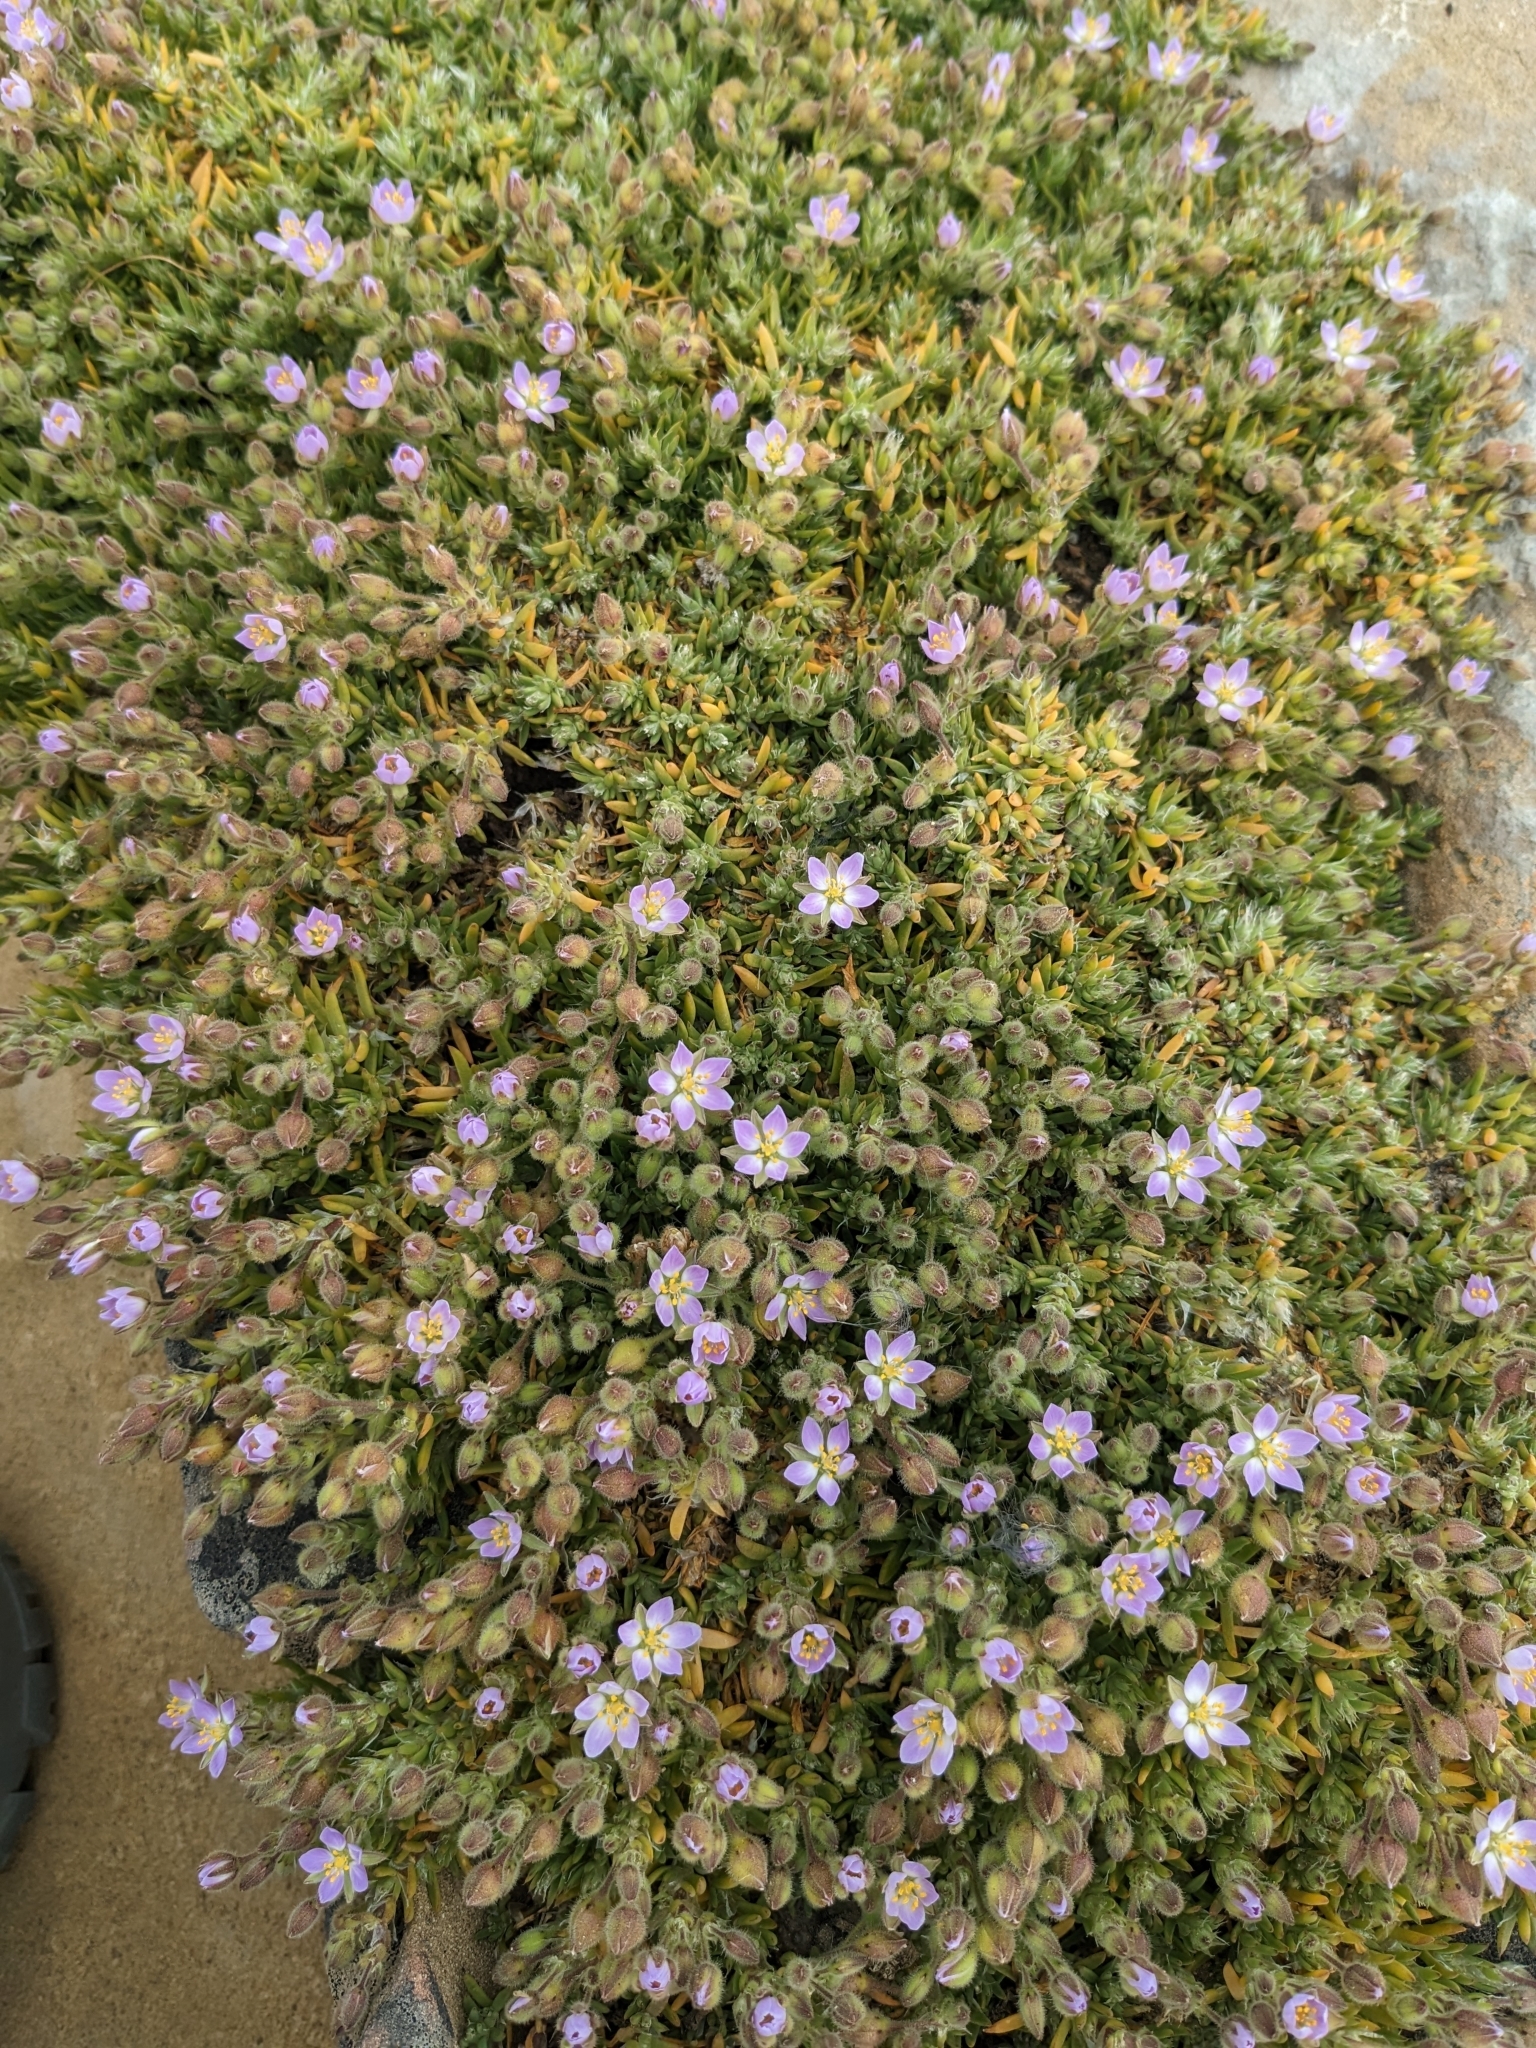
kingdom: Plantae
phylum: Tracheophyta
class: Magnoliopsida
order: Caryophyllales
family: Caryophyllaceae
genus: Spergularia
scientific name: Spergularia rubra
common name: Red sand-spurrey
